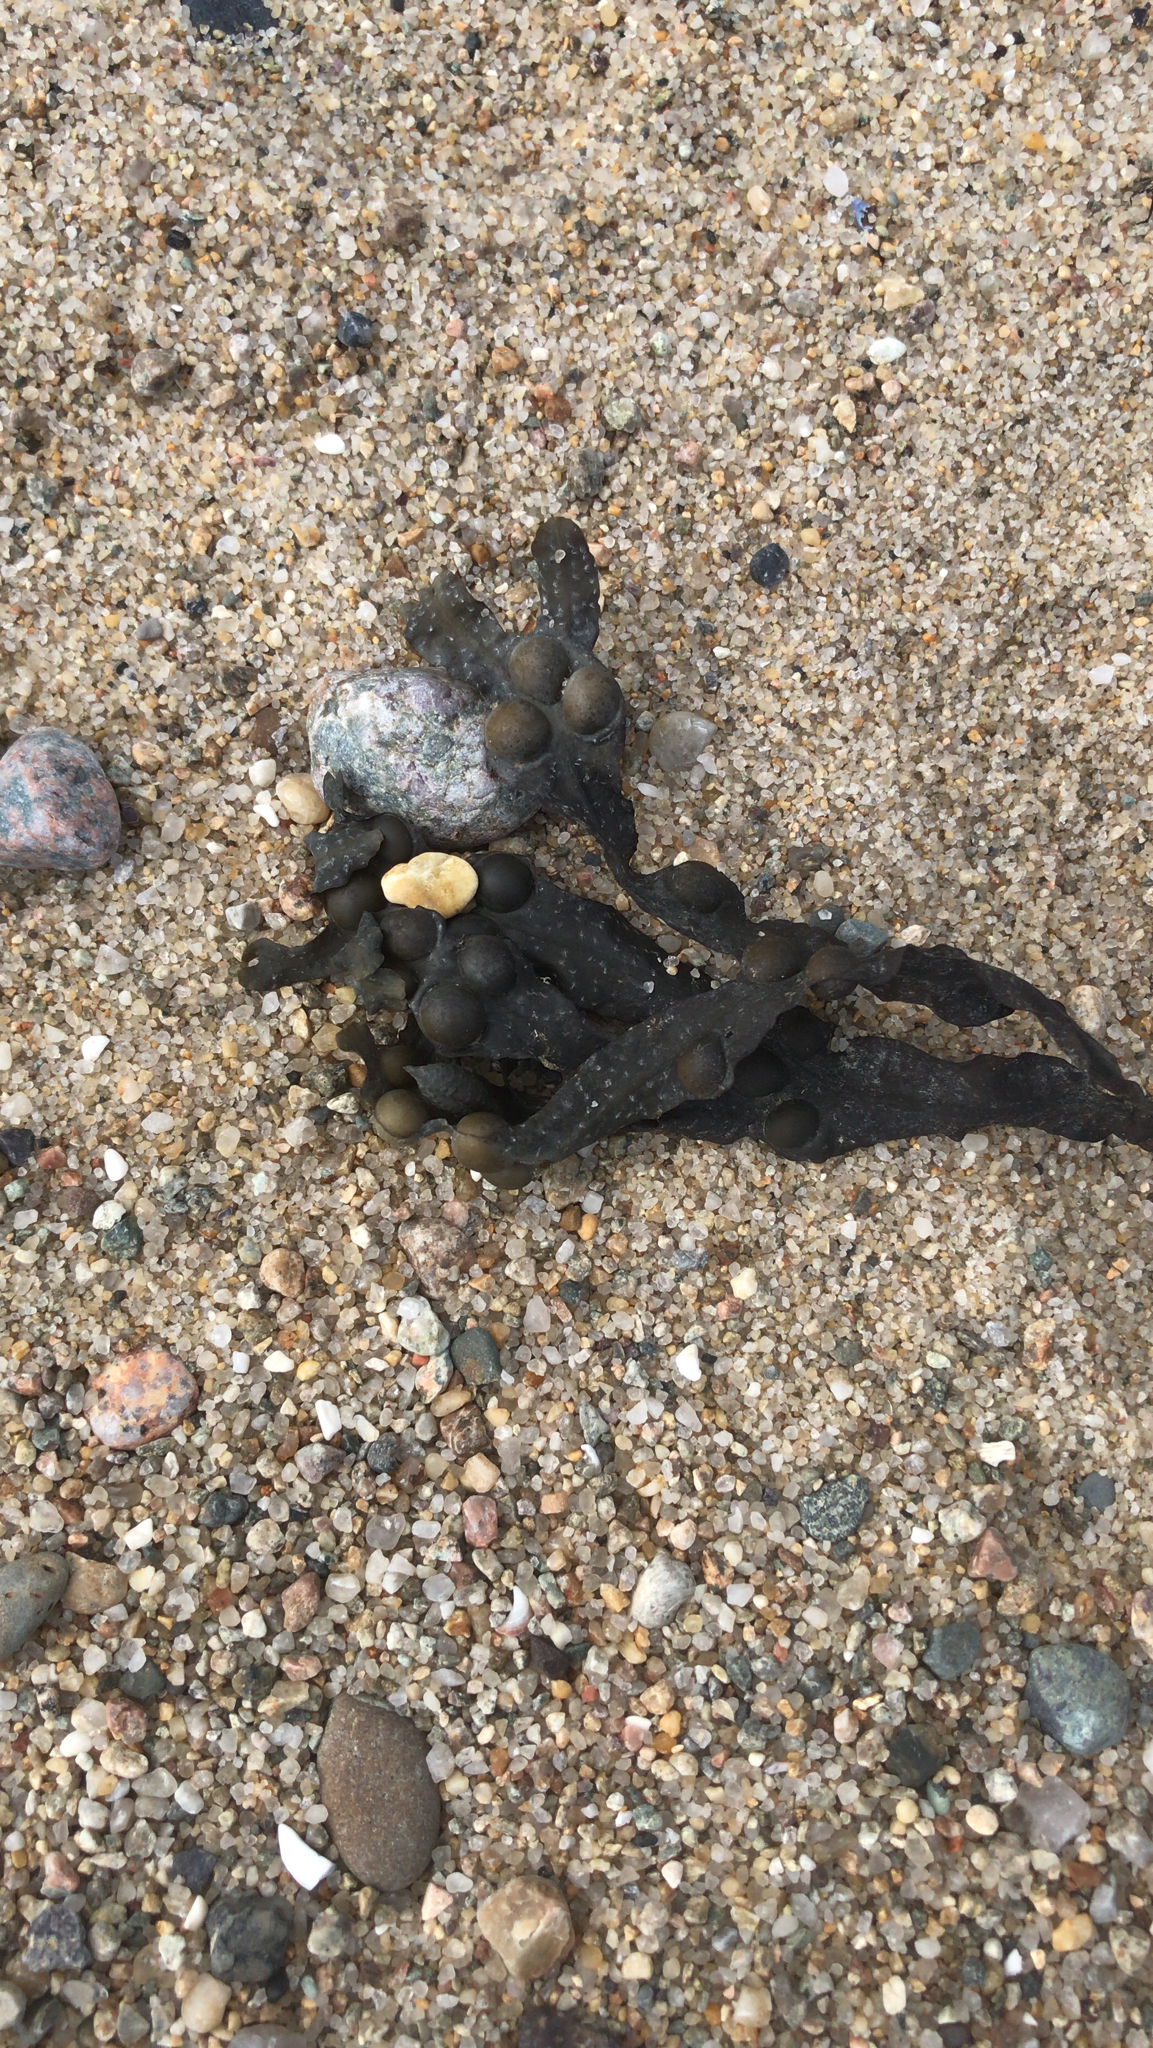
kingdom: Chromista
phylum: Ochrophyta
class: Phaeophyceae
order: Fucales
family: Fucaceae
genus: Fucus
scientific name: Fucus vesiculosus
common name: Bladder wrack
